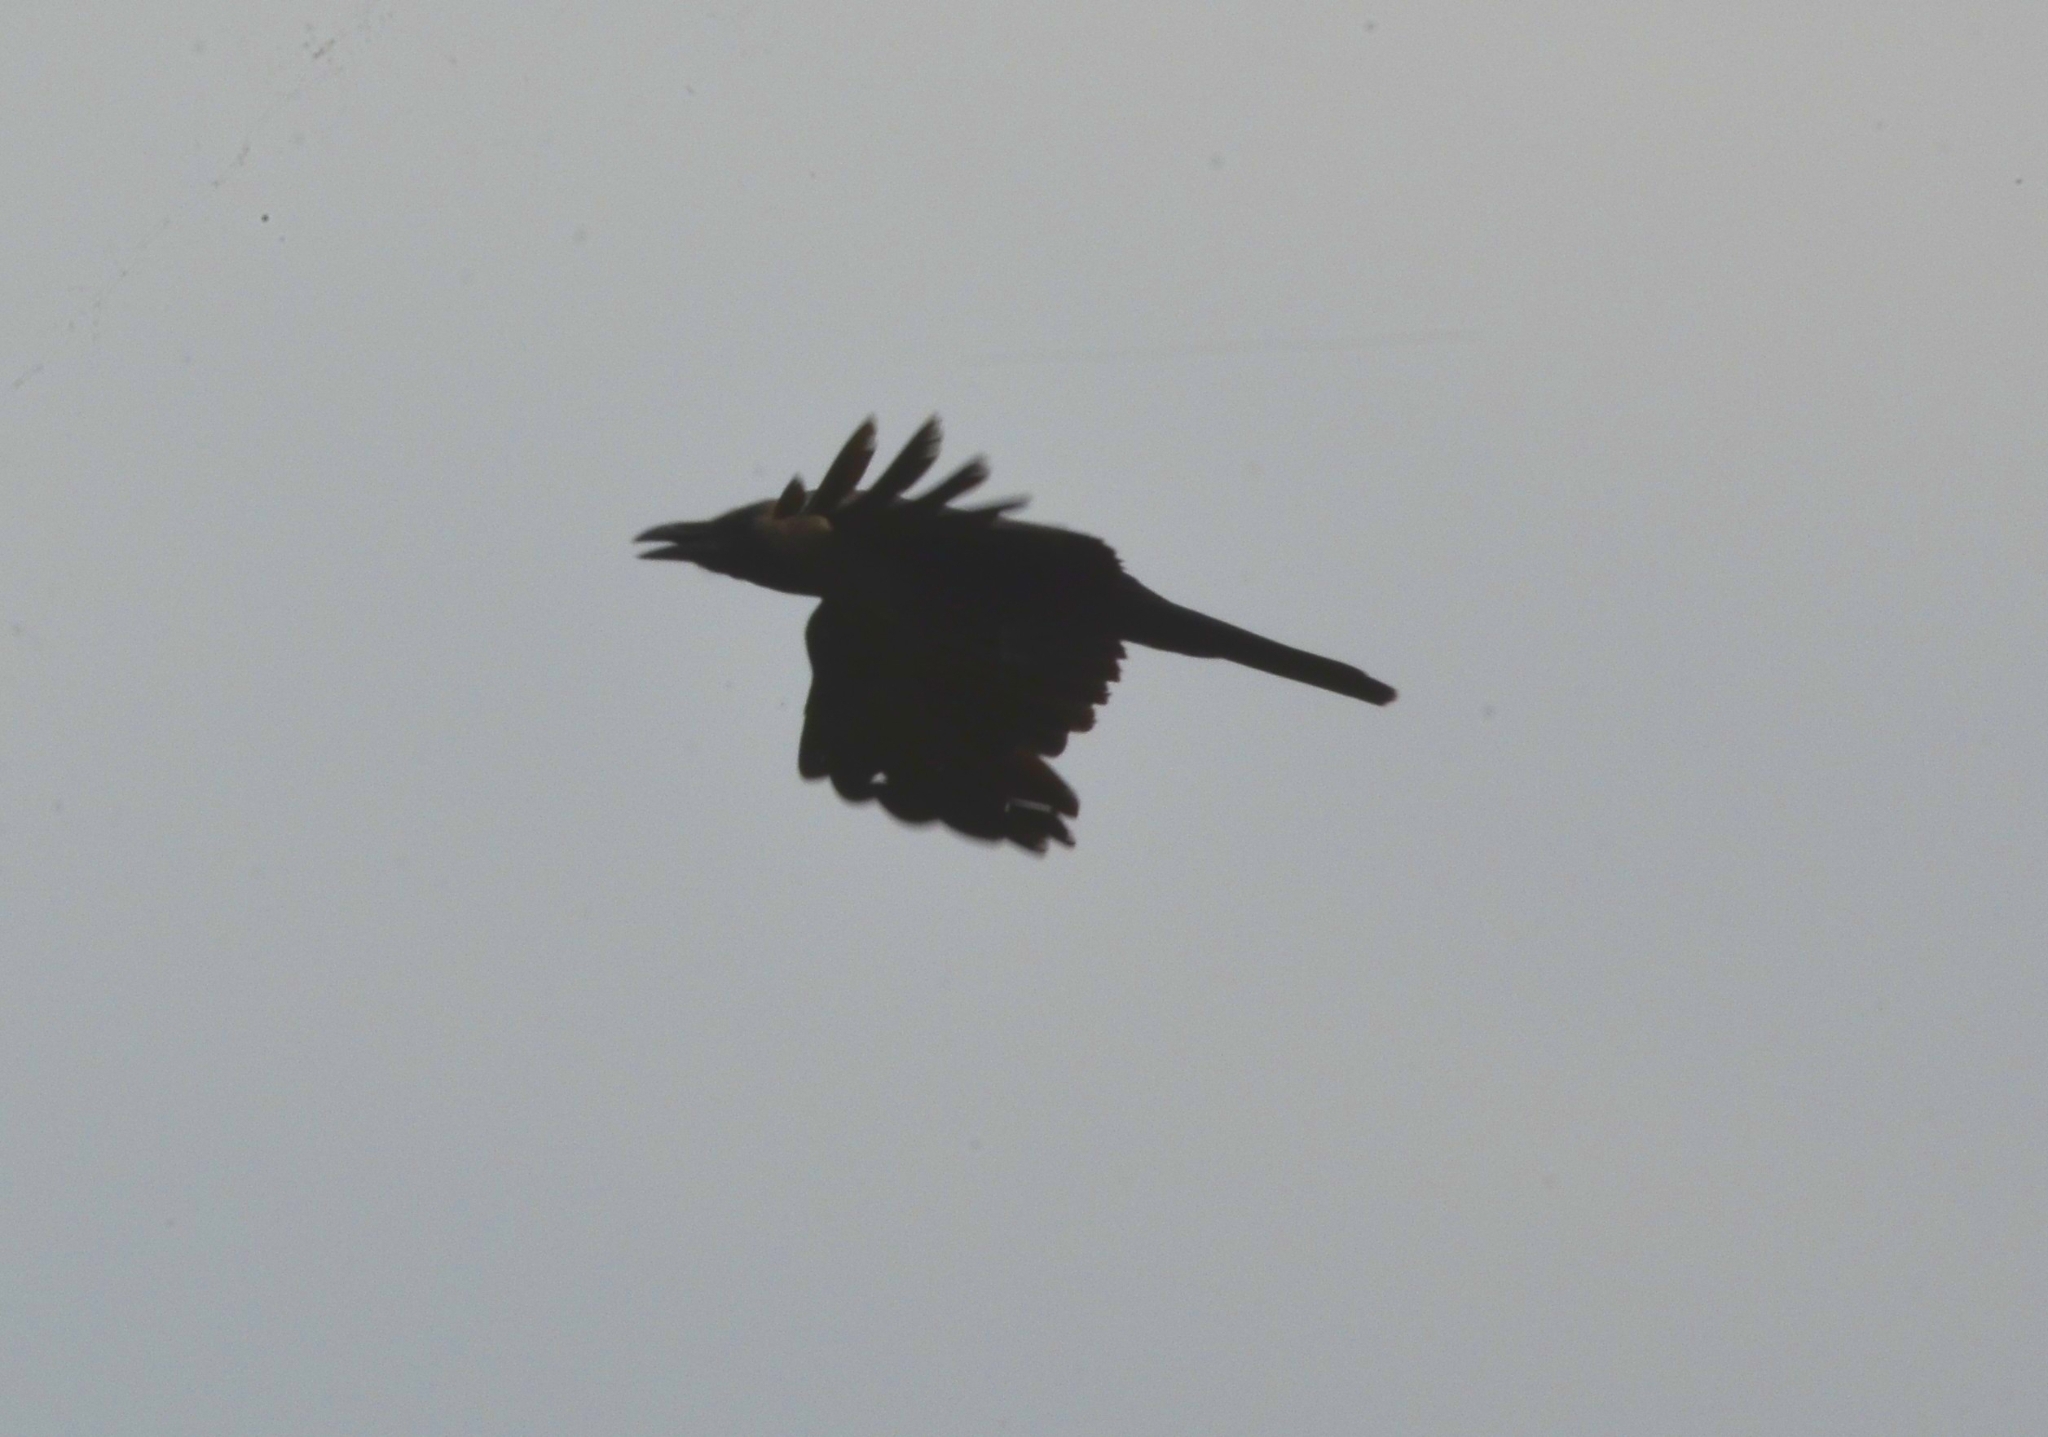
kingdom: Animalia
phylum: Chordata
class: Aves
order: Passeriformes
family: Corvidae
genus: Corvus
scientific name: Corvus splendens
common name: House crow
